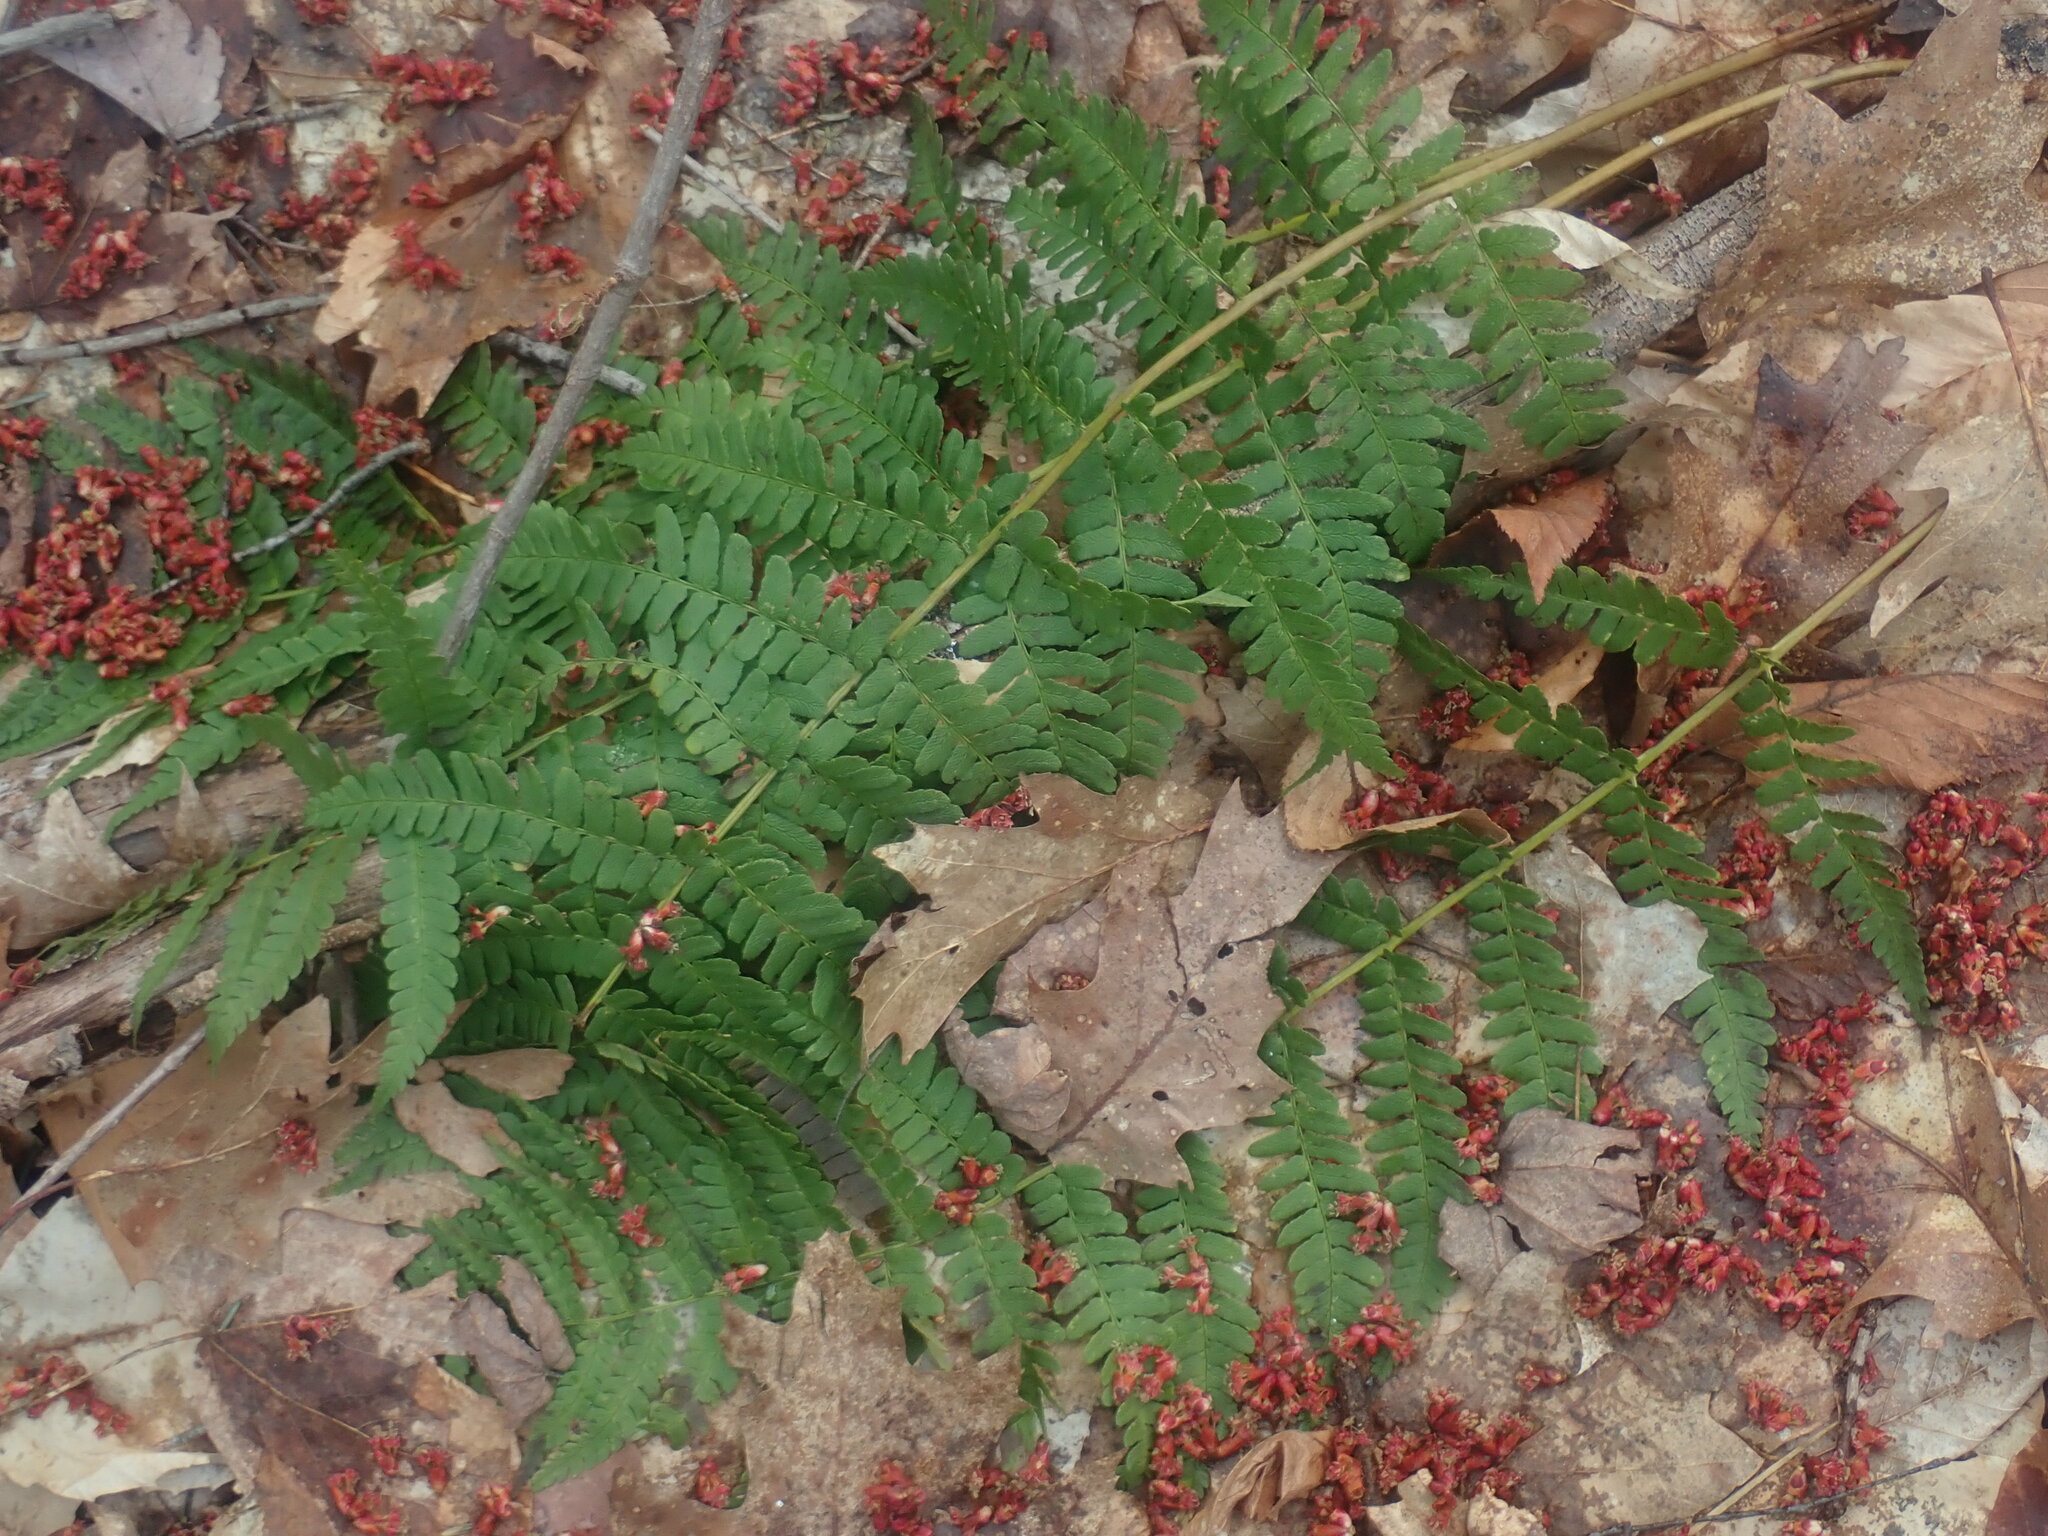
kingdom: Plantae
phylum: Tracheophyta
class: Polypodiopsida
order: Polypodiales
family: Dryopteridaceae
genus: Dryopteris
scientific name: Dryopteris marginalis
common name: Marginal wood fern
